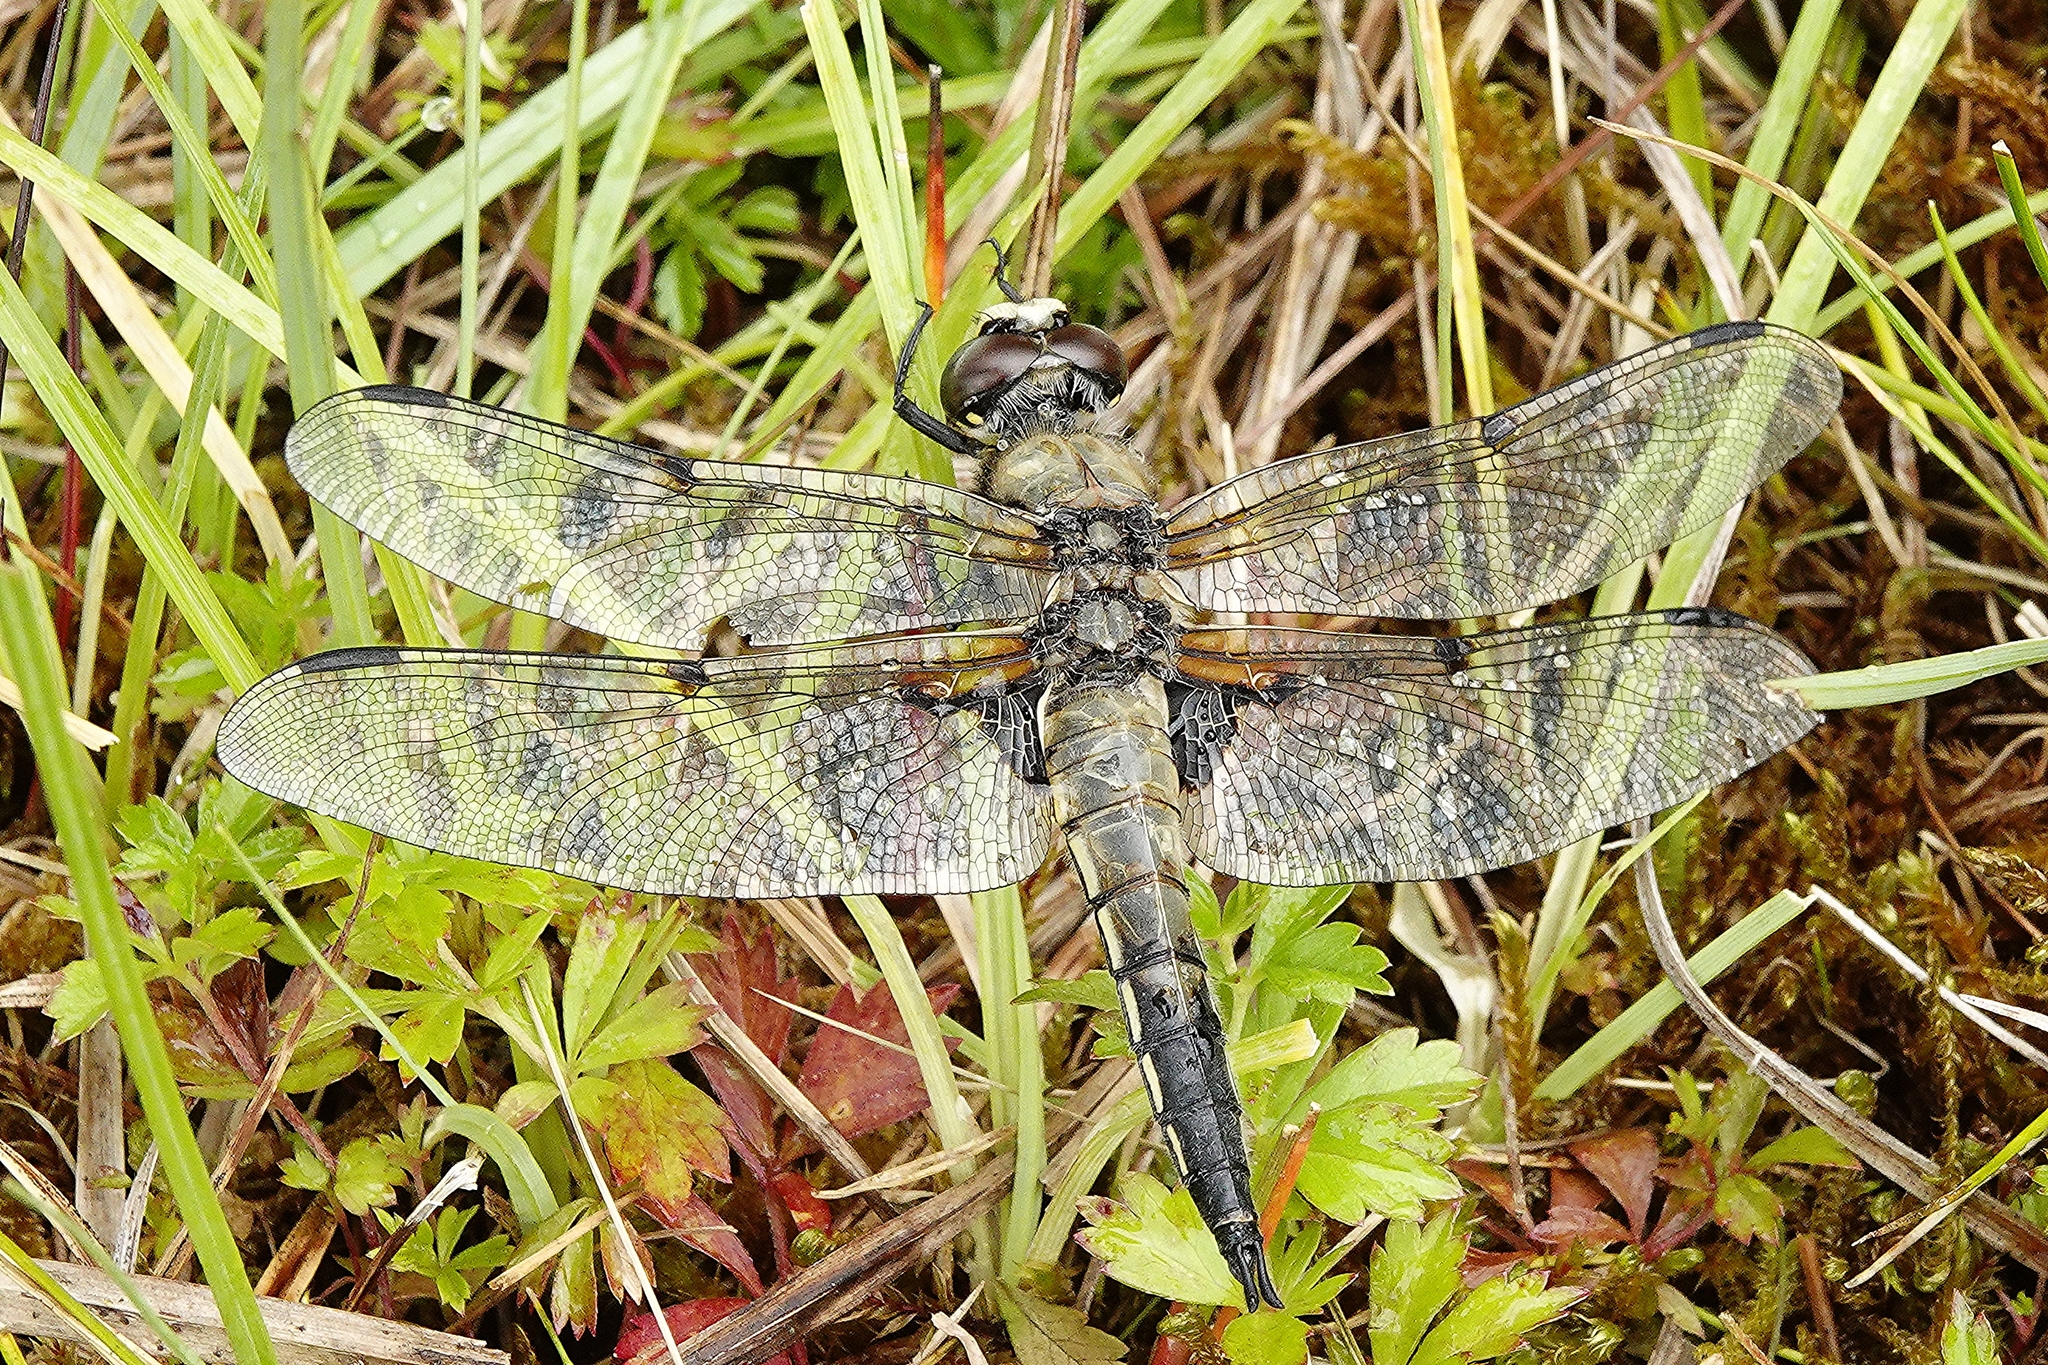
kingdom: Animalia
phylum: Arthropoda
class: Insecta
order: Odonata
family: Libellulidae
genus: Libellula
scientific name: Libellula quadrimaculata
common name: Four-spotted chaser
